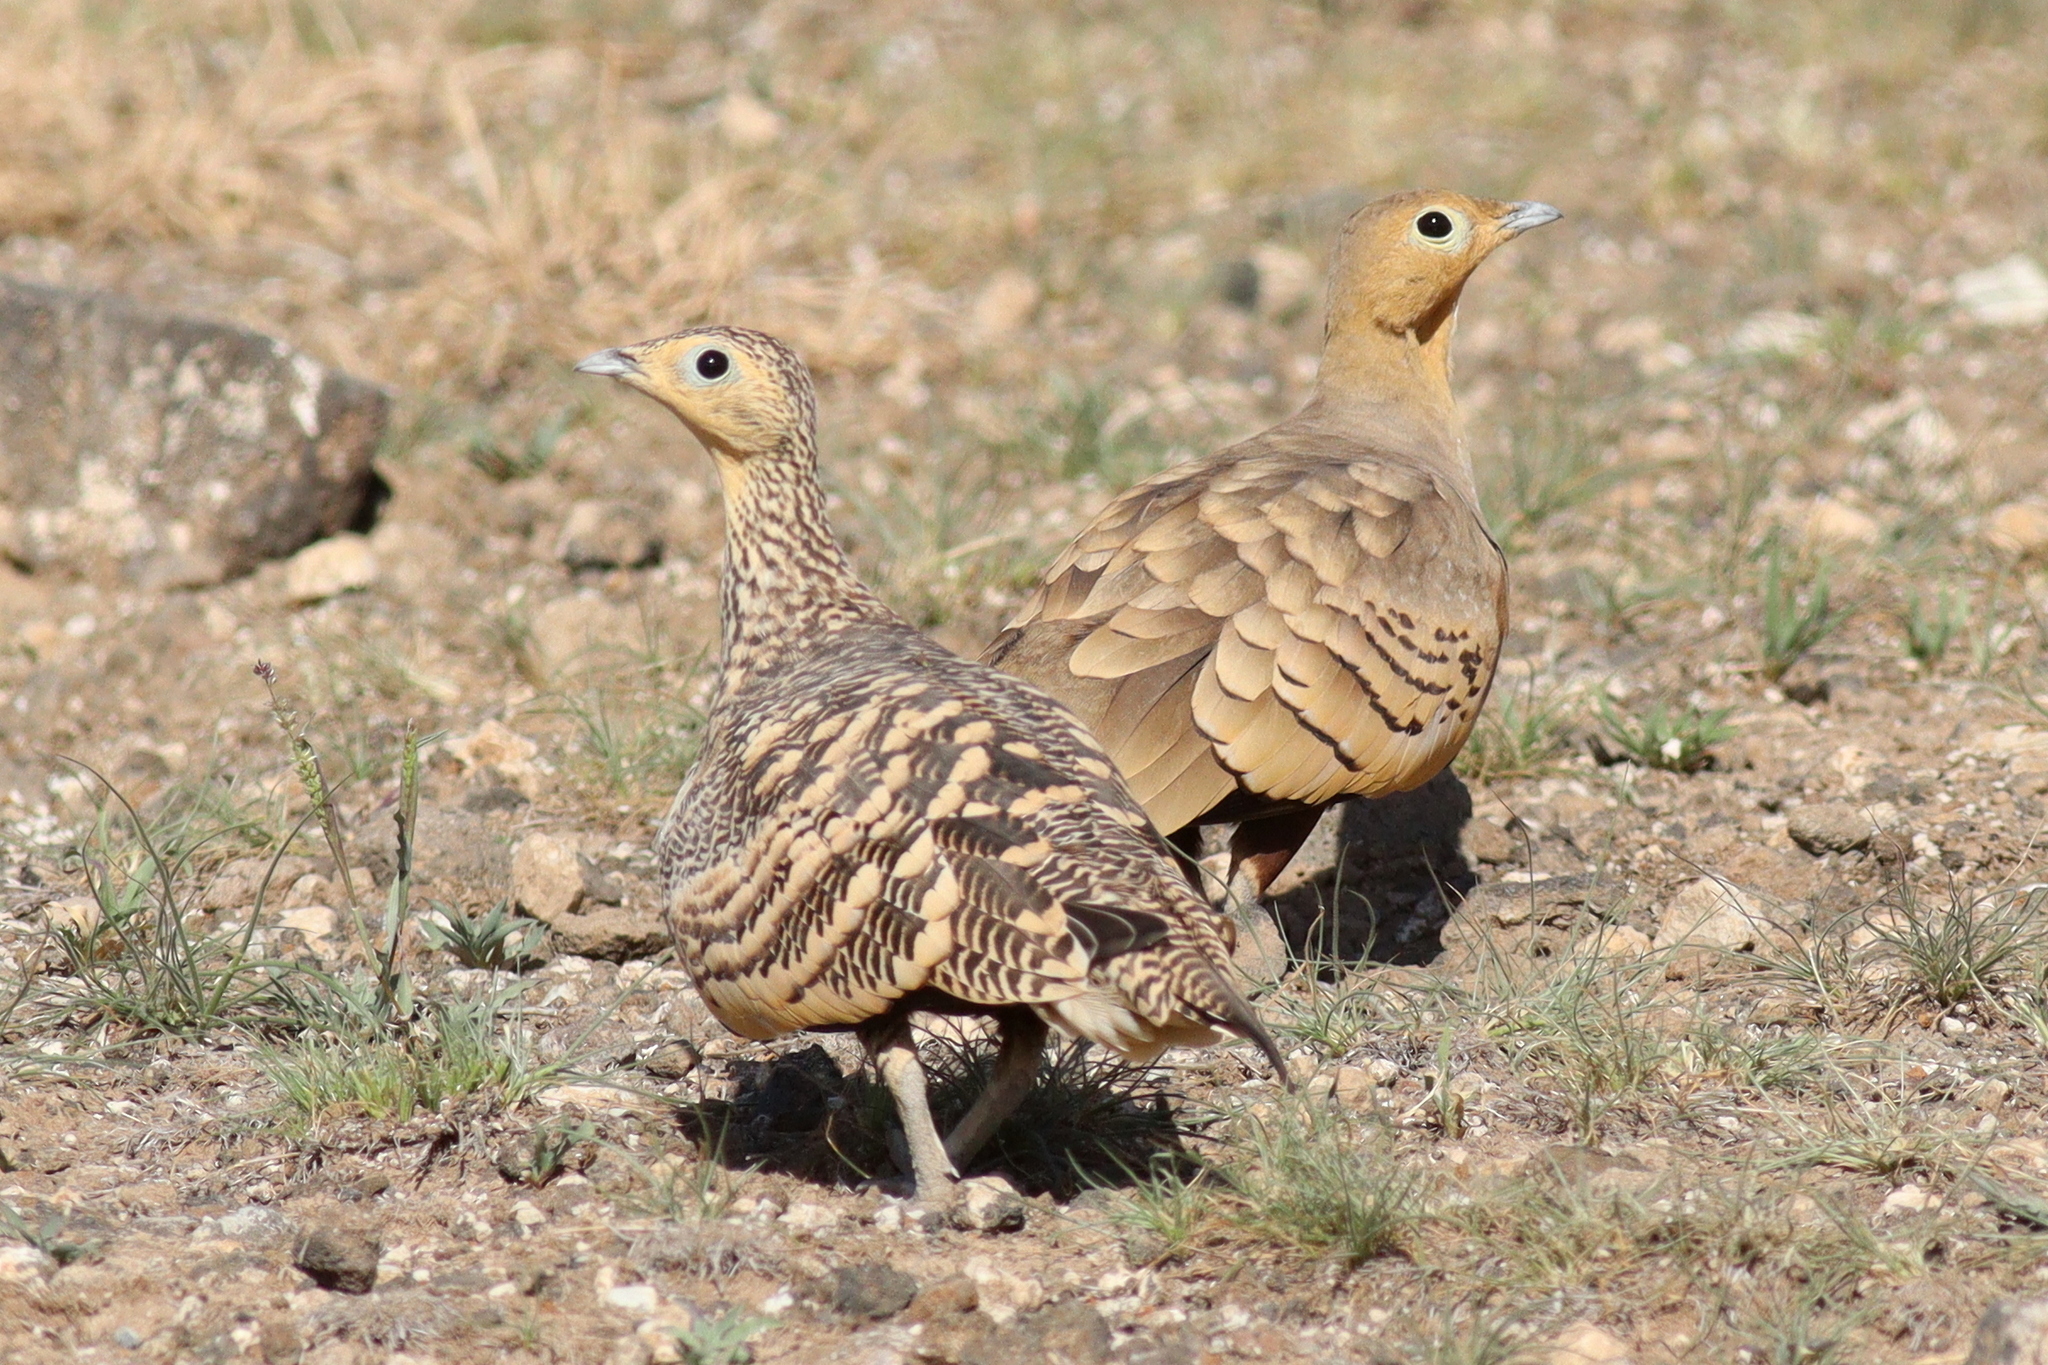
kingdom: Animalia
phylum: Chordata
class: Aves
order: Pteroclidiformes
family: Pteroclididae
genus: Pterocles
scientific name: Pterocles exustus
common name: Chestnut-bellied sandgrouse
